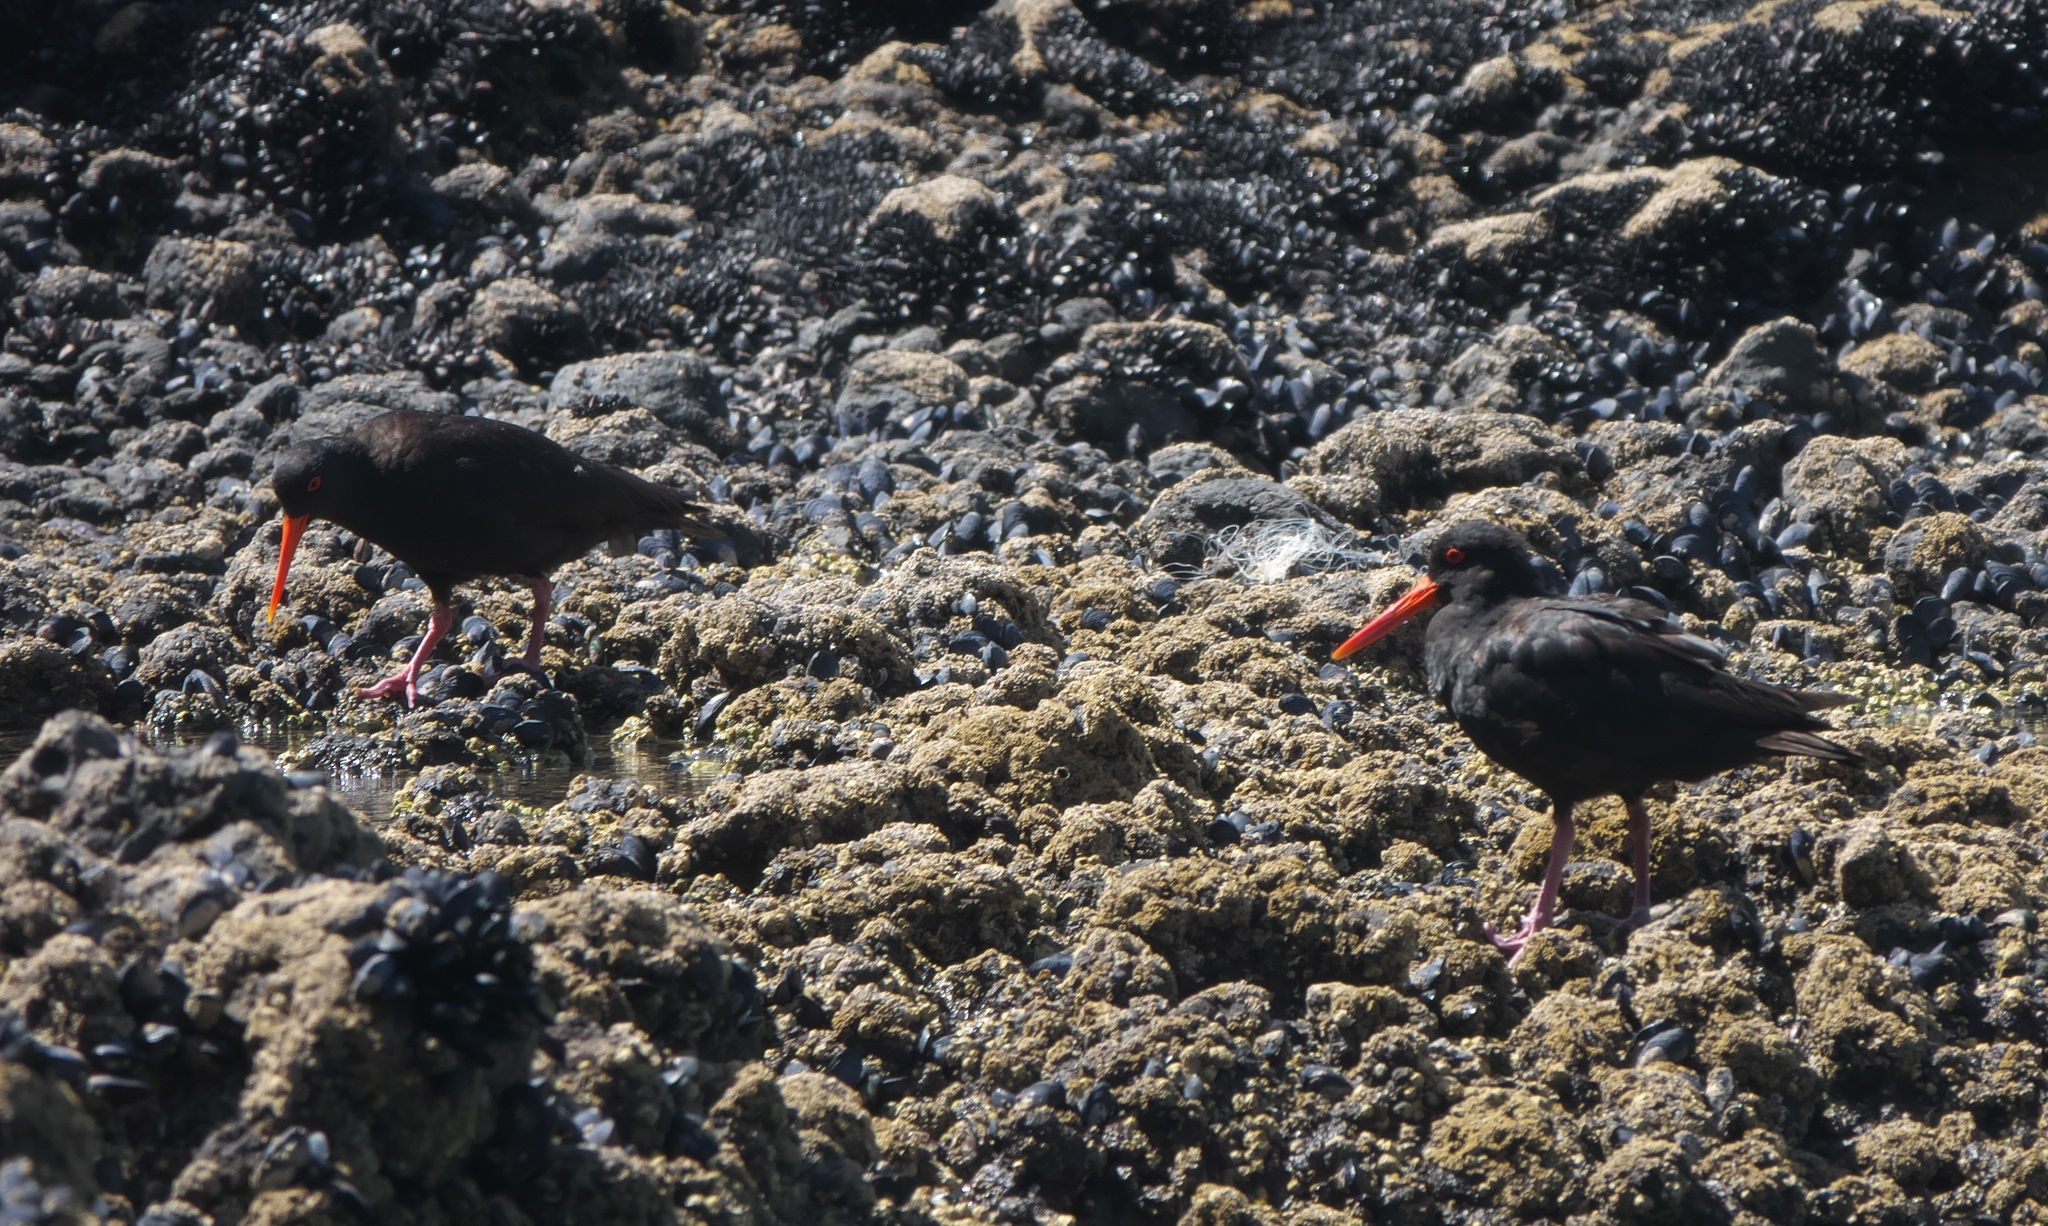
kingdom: Animalia
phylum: Chordata
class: Aves
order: Charadriiformes
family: Haematopodidae
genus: Haematopus
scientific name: Haematopus unicolor
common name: Variable oystercatcher
